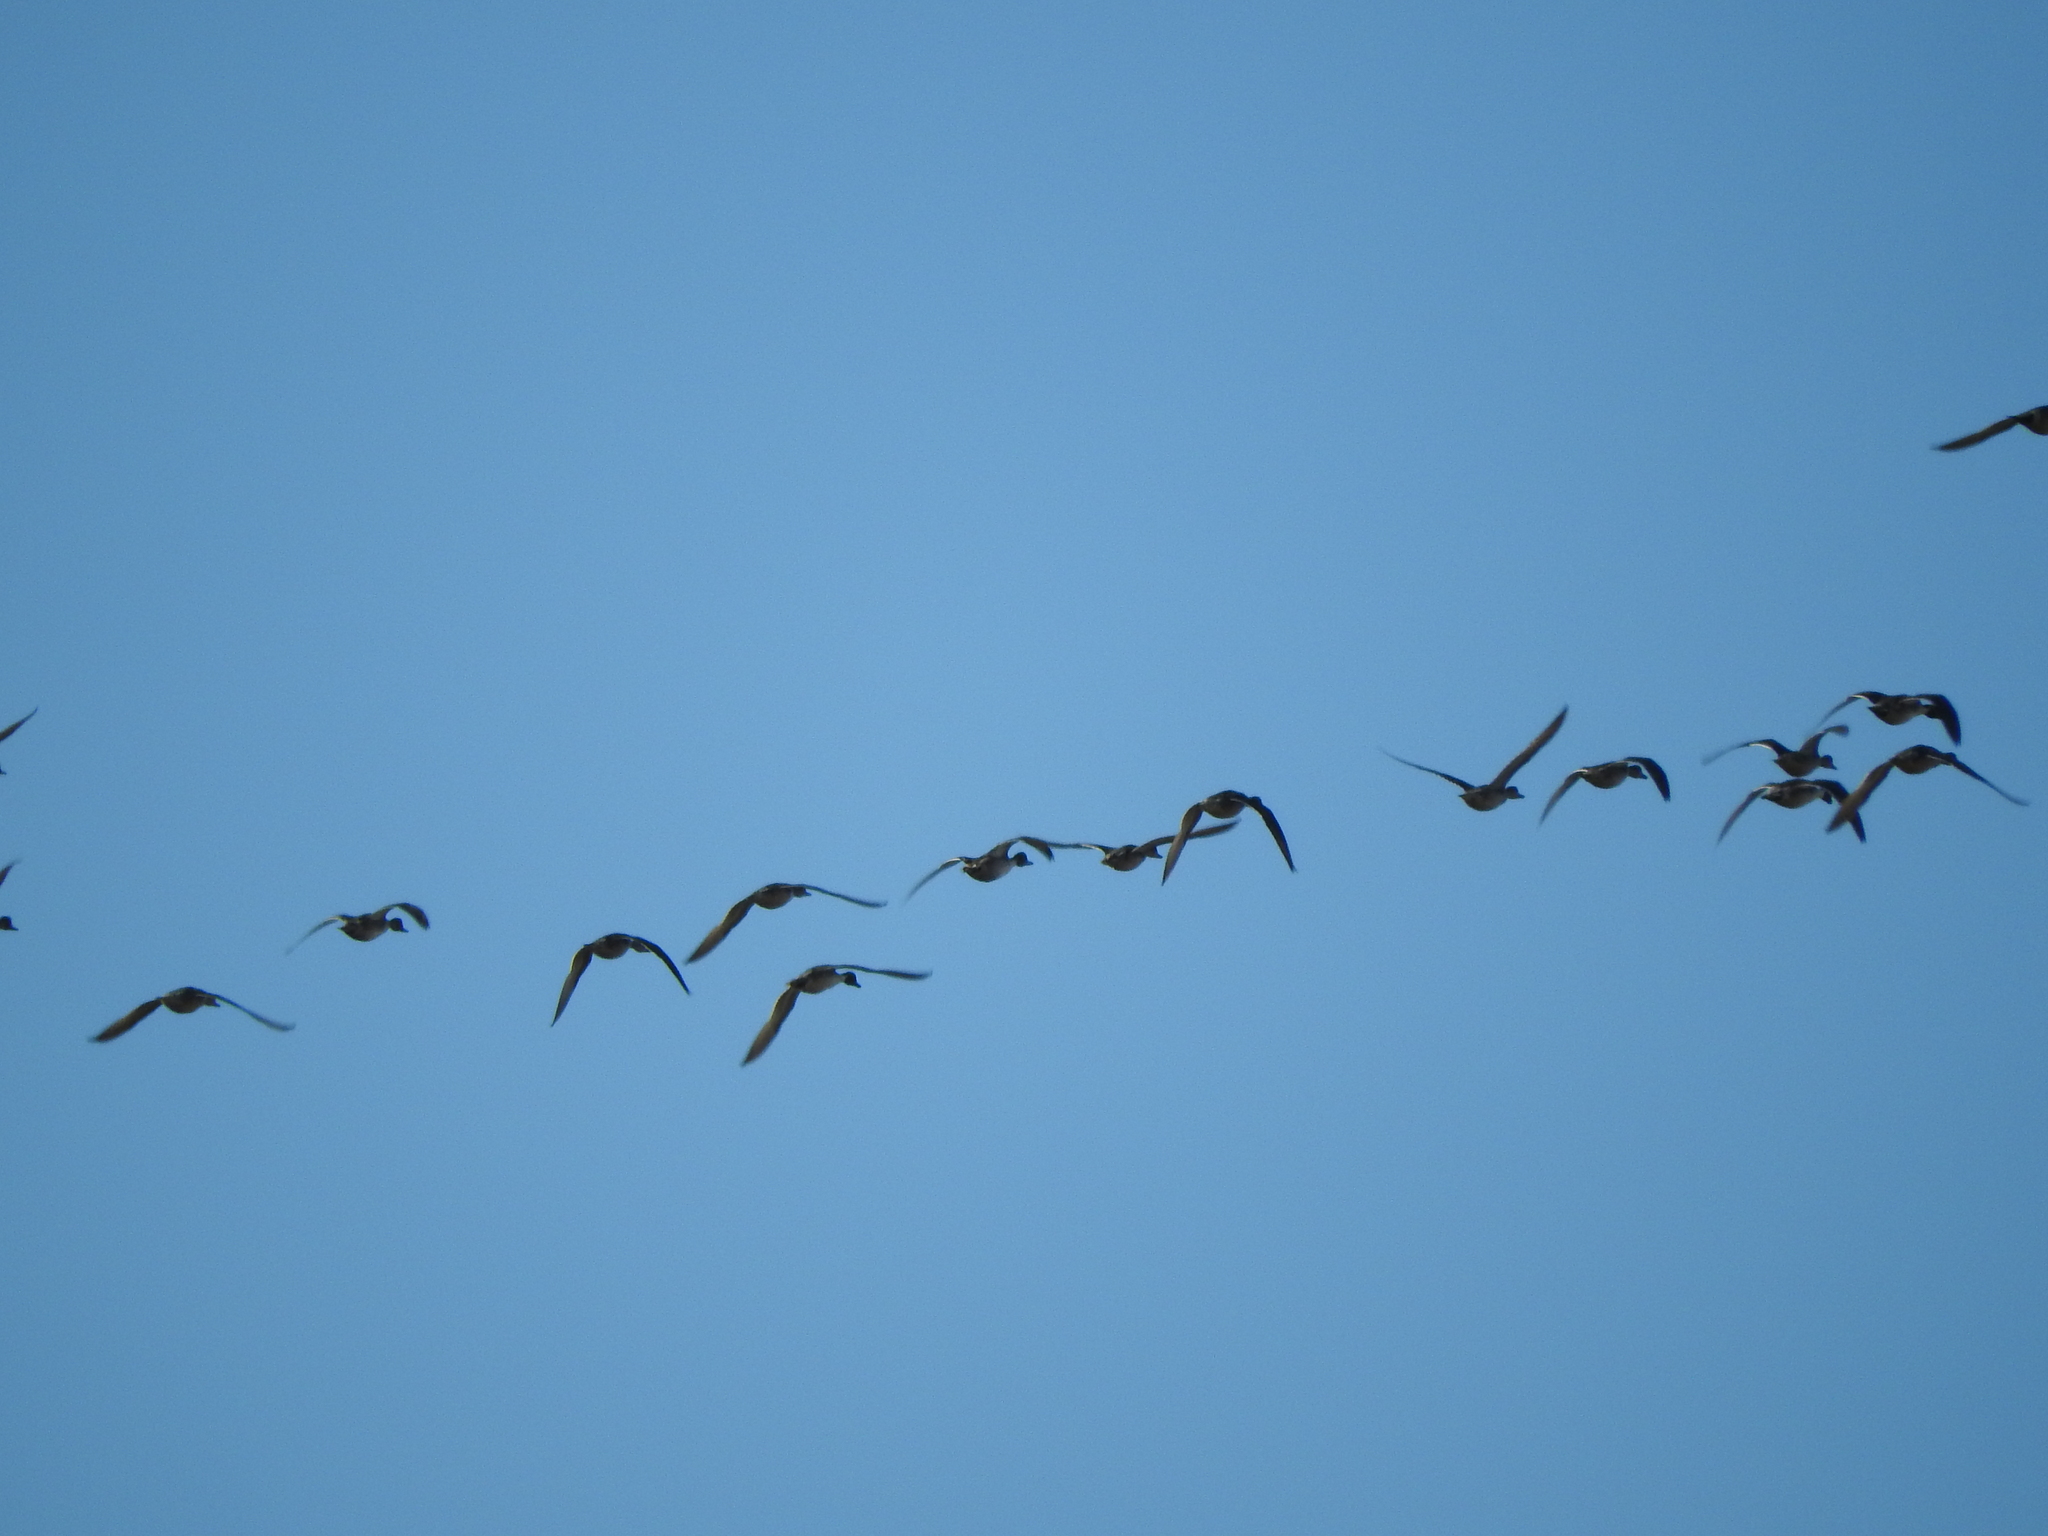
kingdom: Animalia
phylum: Chordata
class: Aves
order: Anseriformes
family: Anatidae
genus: Anas
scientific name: Anas acuta
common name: Northern pintail
